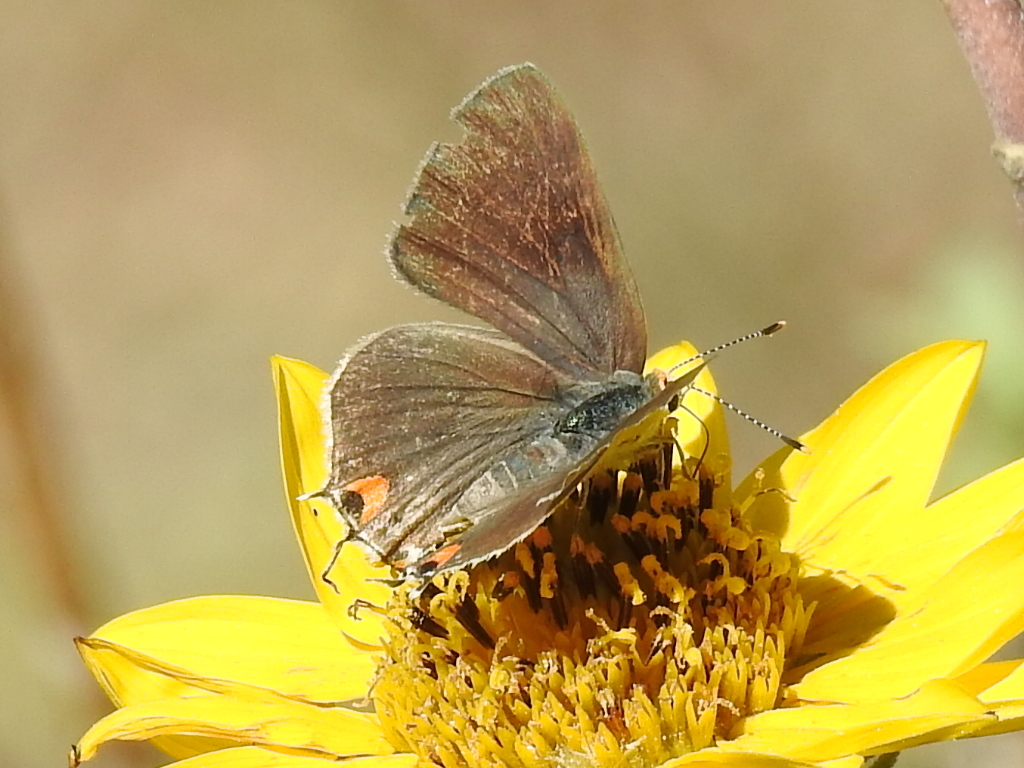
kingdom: Animalia
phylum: Arthropoda
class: Insecta
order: Lepidoptera
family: Lycaenidae
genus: Strymon
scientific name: Strymon melinus
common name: Gray hairstreak
